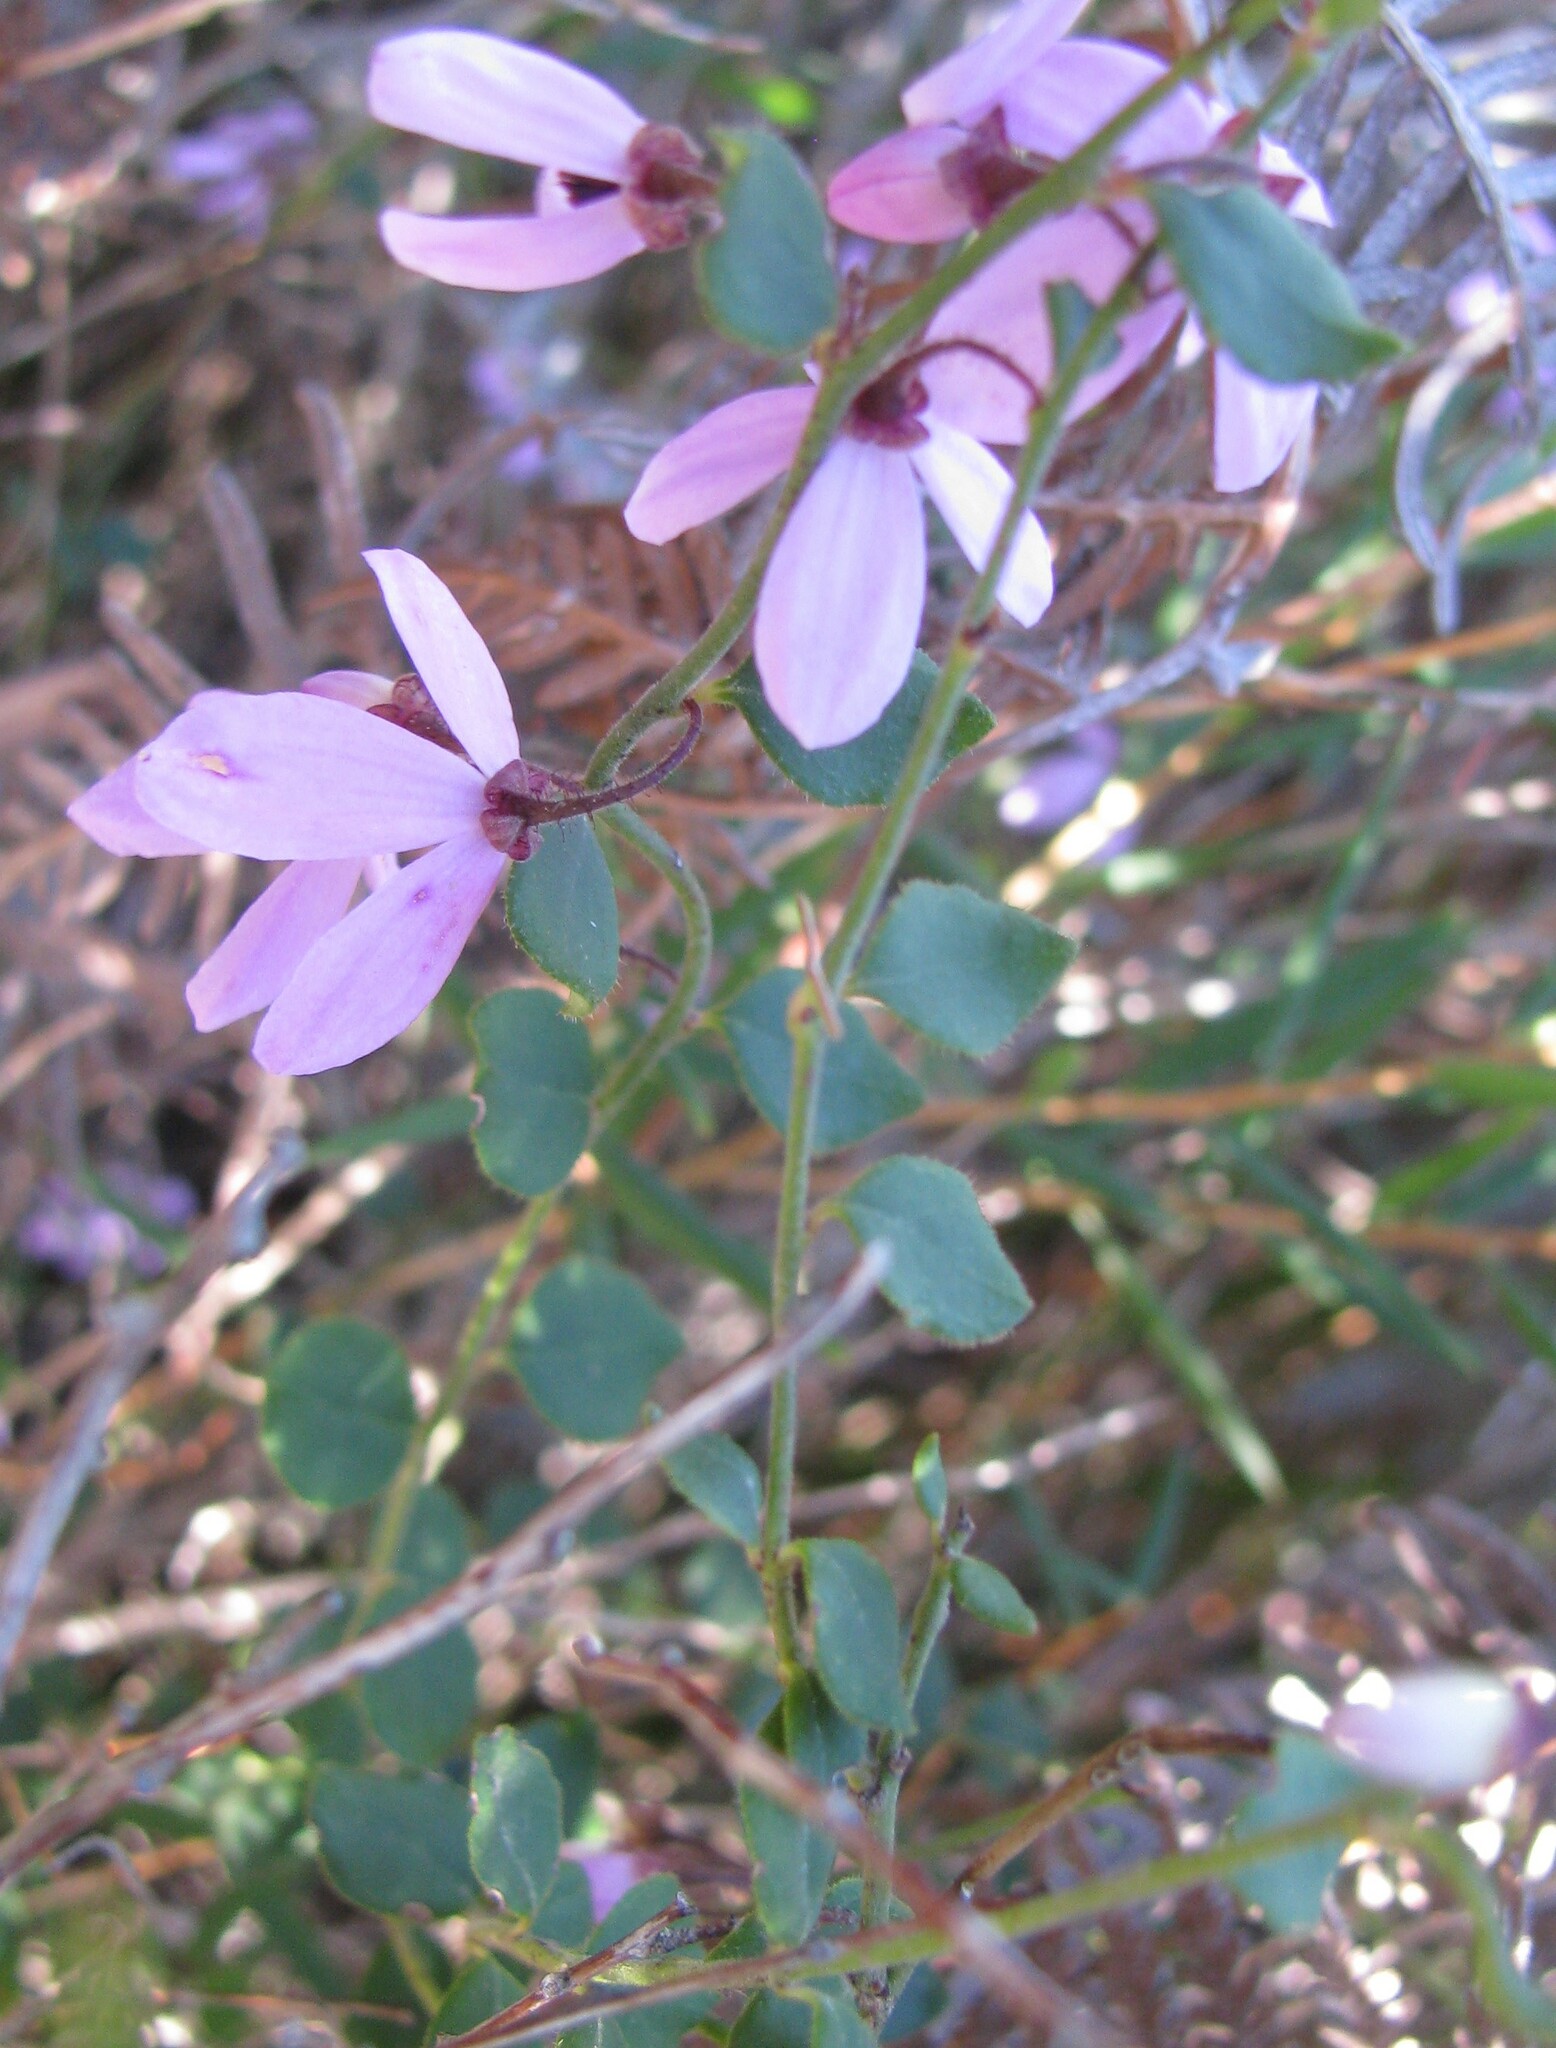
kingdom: Plantae
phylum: Tracheophyta
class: Magnoliopsida
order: Oxalidales
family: Elaeocarpaceae
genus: Tetratheca
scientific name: Tetratheca ciliata
